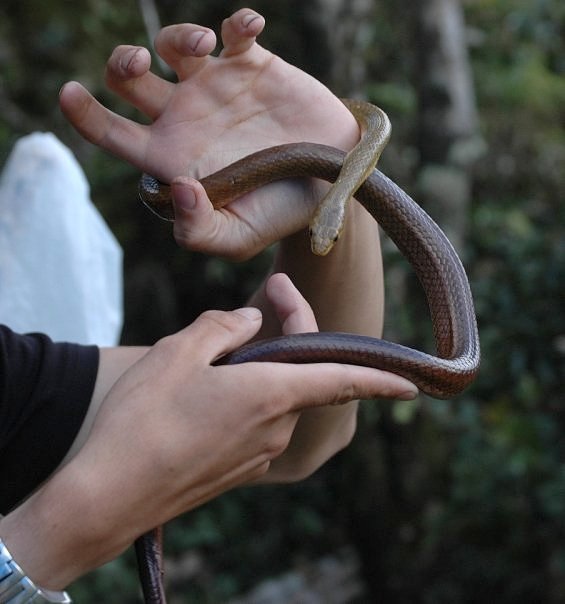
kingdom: Animalia
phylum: Chordata
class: Squamata
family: Pseudoxyrhophiidae
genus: Ithycyphus
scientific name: Ithycyphus perineti
